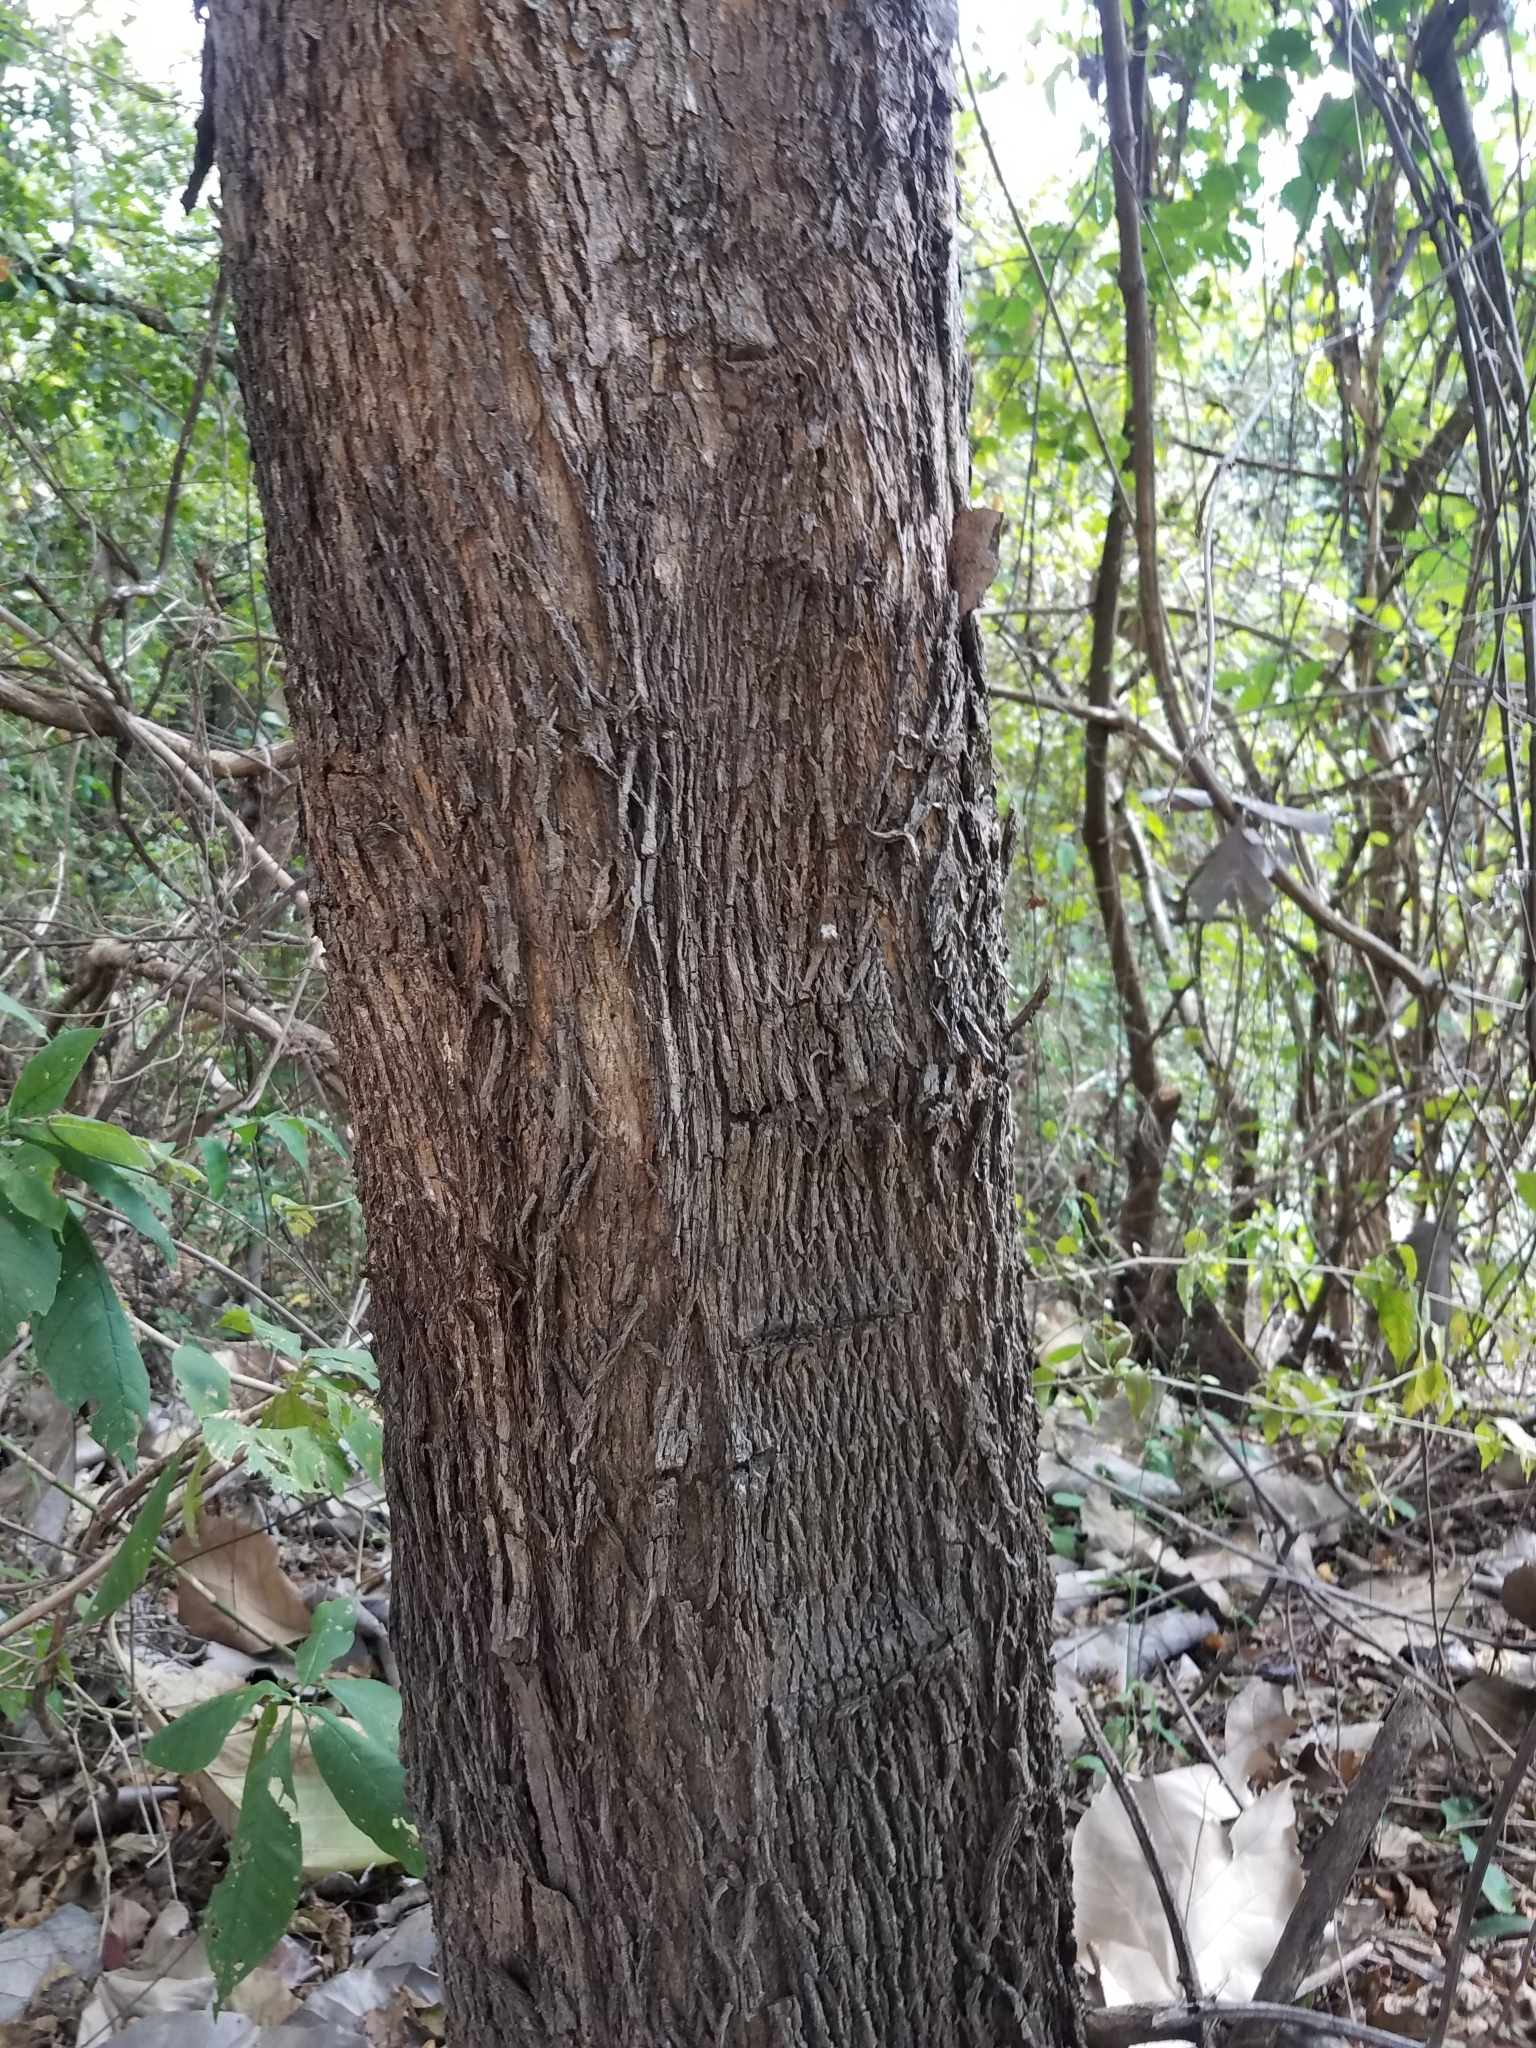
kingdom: Plantae
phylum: Tracheophyta
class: Magnoliopsida
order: Lamiales
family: Lamiaceae
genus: Tectona
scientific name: Tectona grandis
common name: Teak
